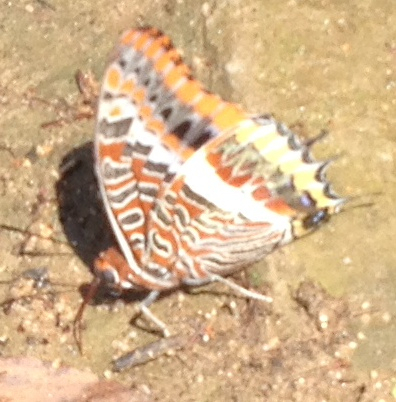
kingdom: Animalia
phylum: Arthropoda
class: Insecta
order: Lepidoptera
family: Nymphalidae
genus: Charaxes
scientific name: Charaxes jasius
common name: Two tailed pasha
